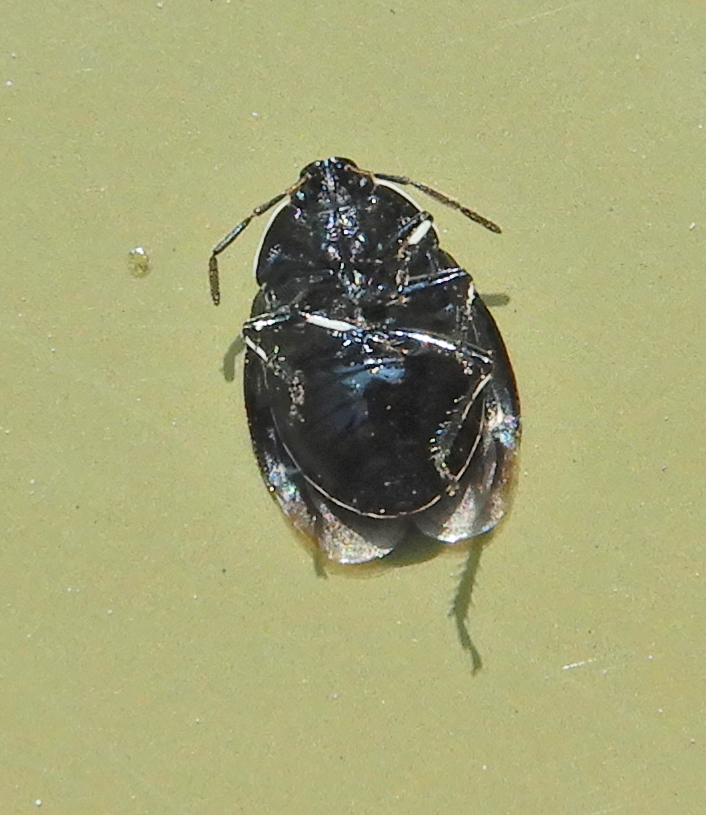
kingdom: Animalia
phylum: Arthropoda
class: Insecta
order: Hemiptera
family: Cydnidae
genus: Sehirus
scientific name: Sehirus cinctus
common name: White-margined burrower bug
